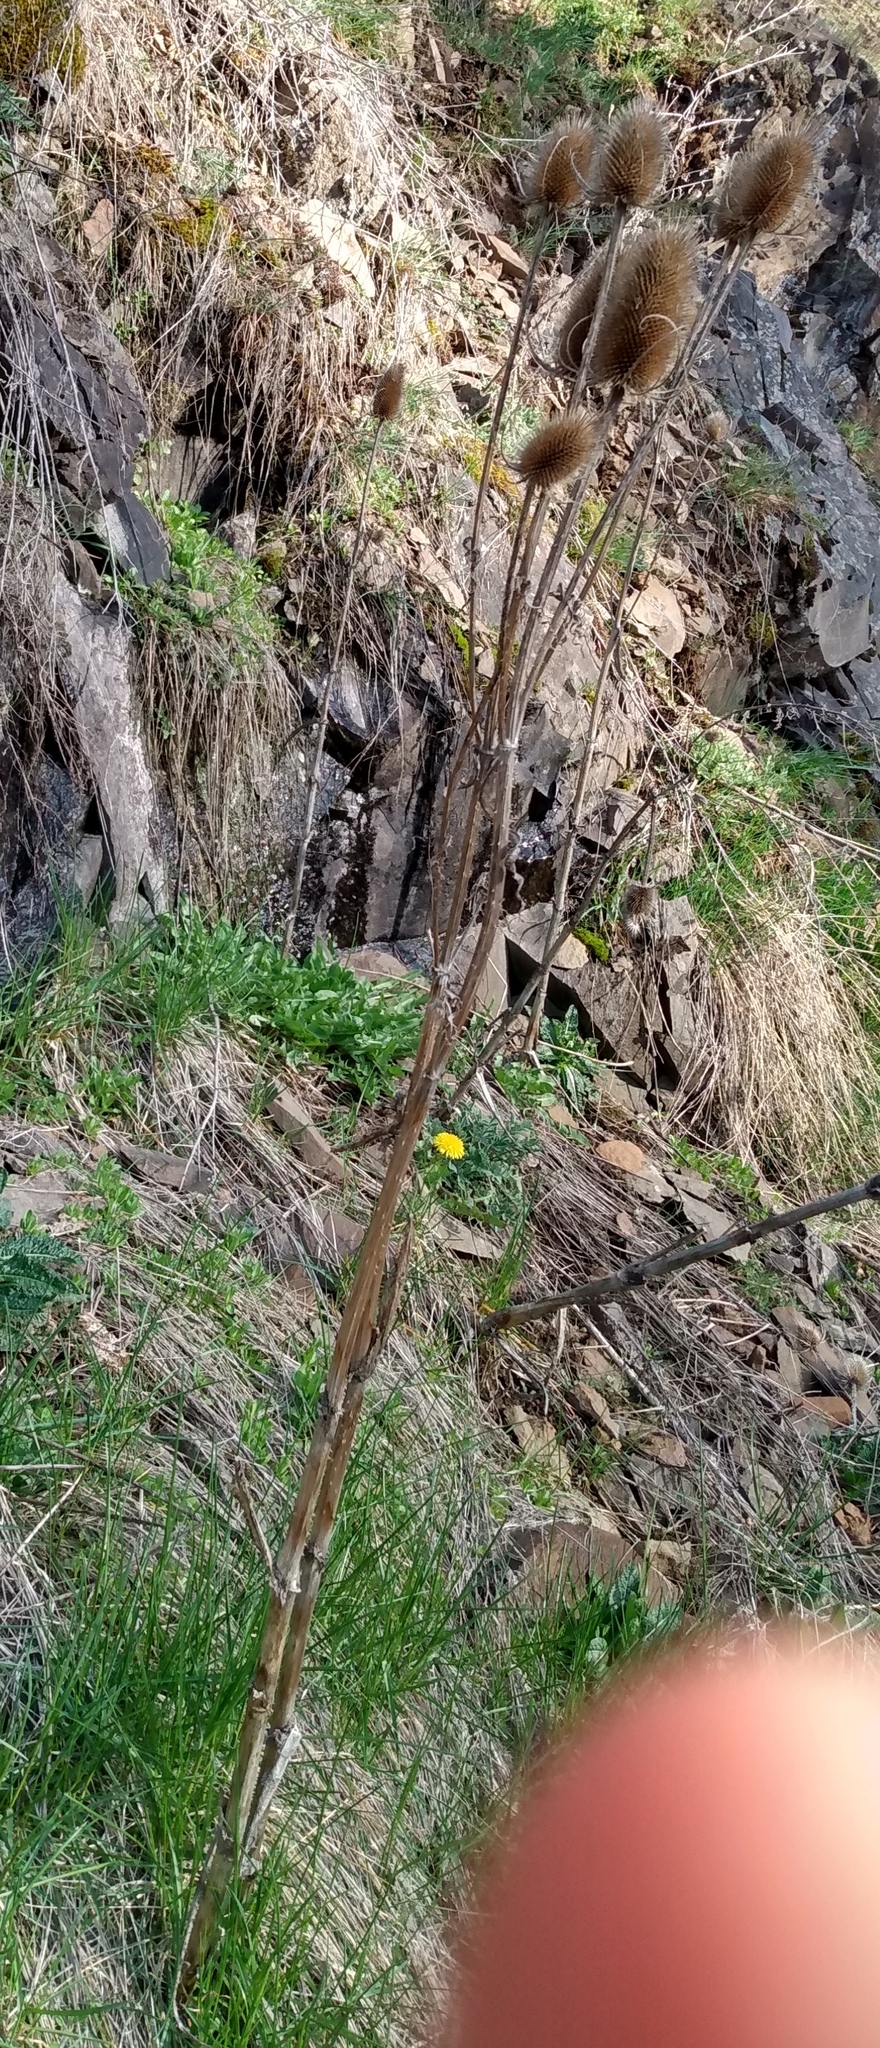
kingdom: Plantae
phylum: Tracheophyta
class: Magnoliopsida
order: Dipsacales
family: Caprifoliaceae
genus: Dipsacus
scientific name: Dipsacus fullonum
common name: Teasel
